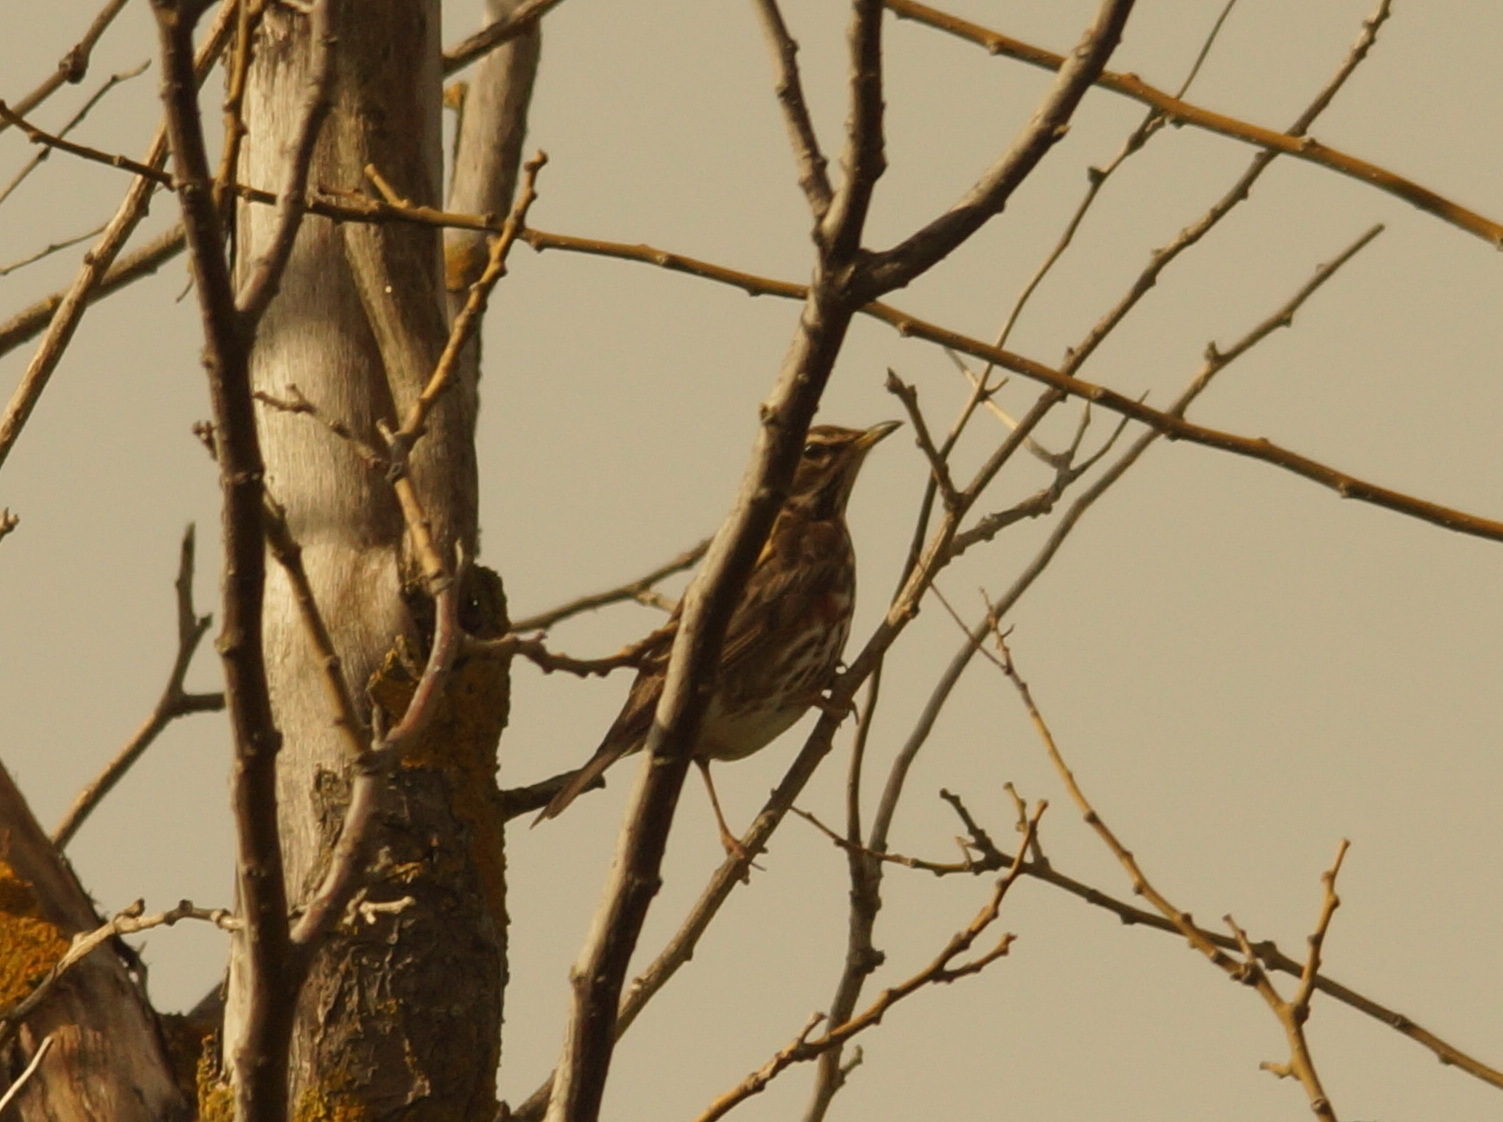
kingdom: Animalia
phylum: Chordata
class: Aves
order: Passeriformes
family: Turdidae
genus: Turdus
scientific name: Turdus iliacus
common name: Redwing
